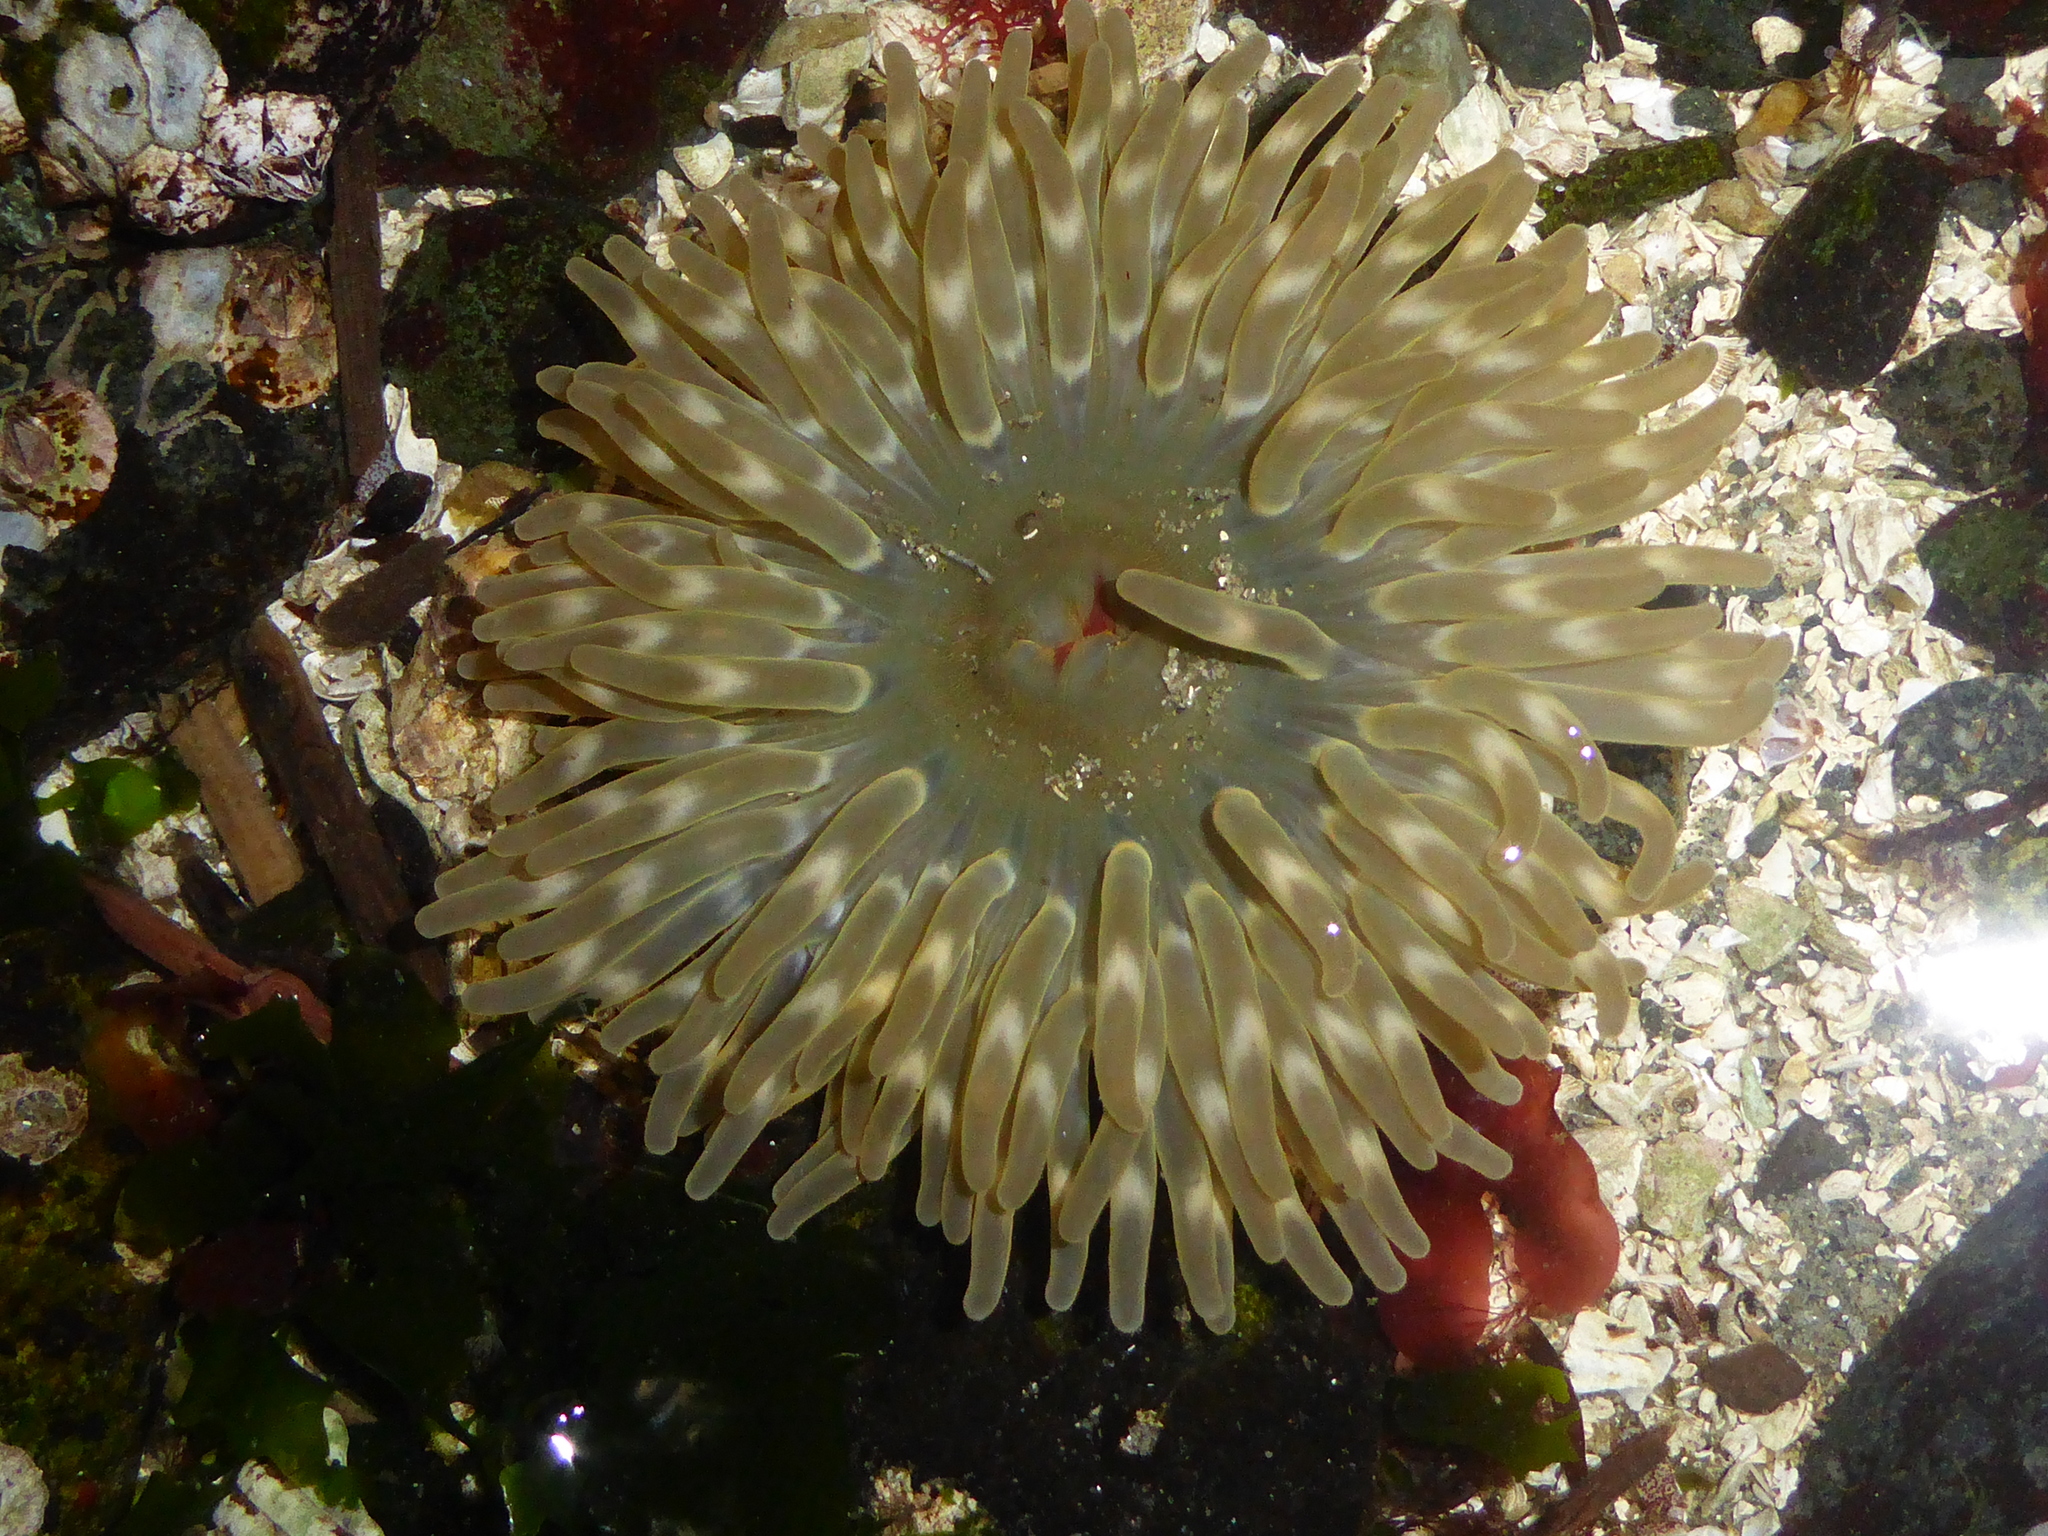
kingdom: Animalia
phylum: Cnidaria
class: Anthozoa
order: Actiniaria
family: Actiniidae
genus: Urticina
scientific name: Urticina clandestina
